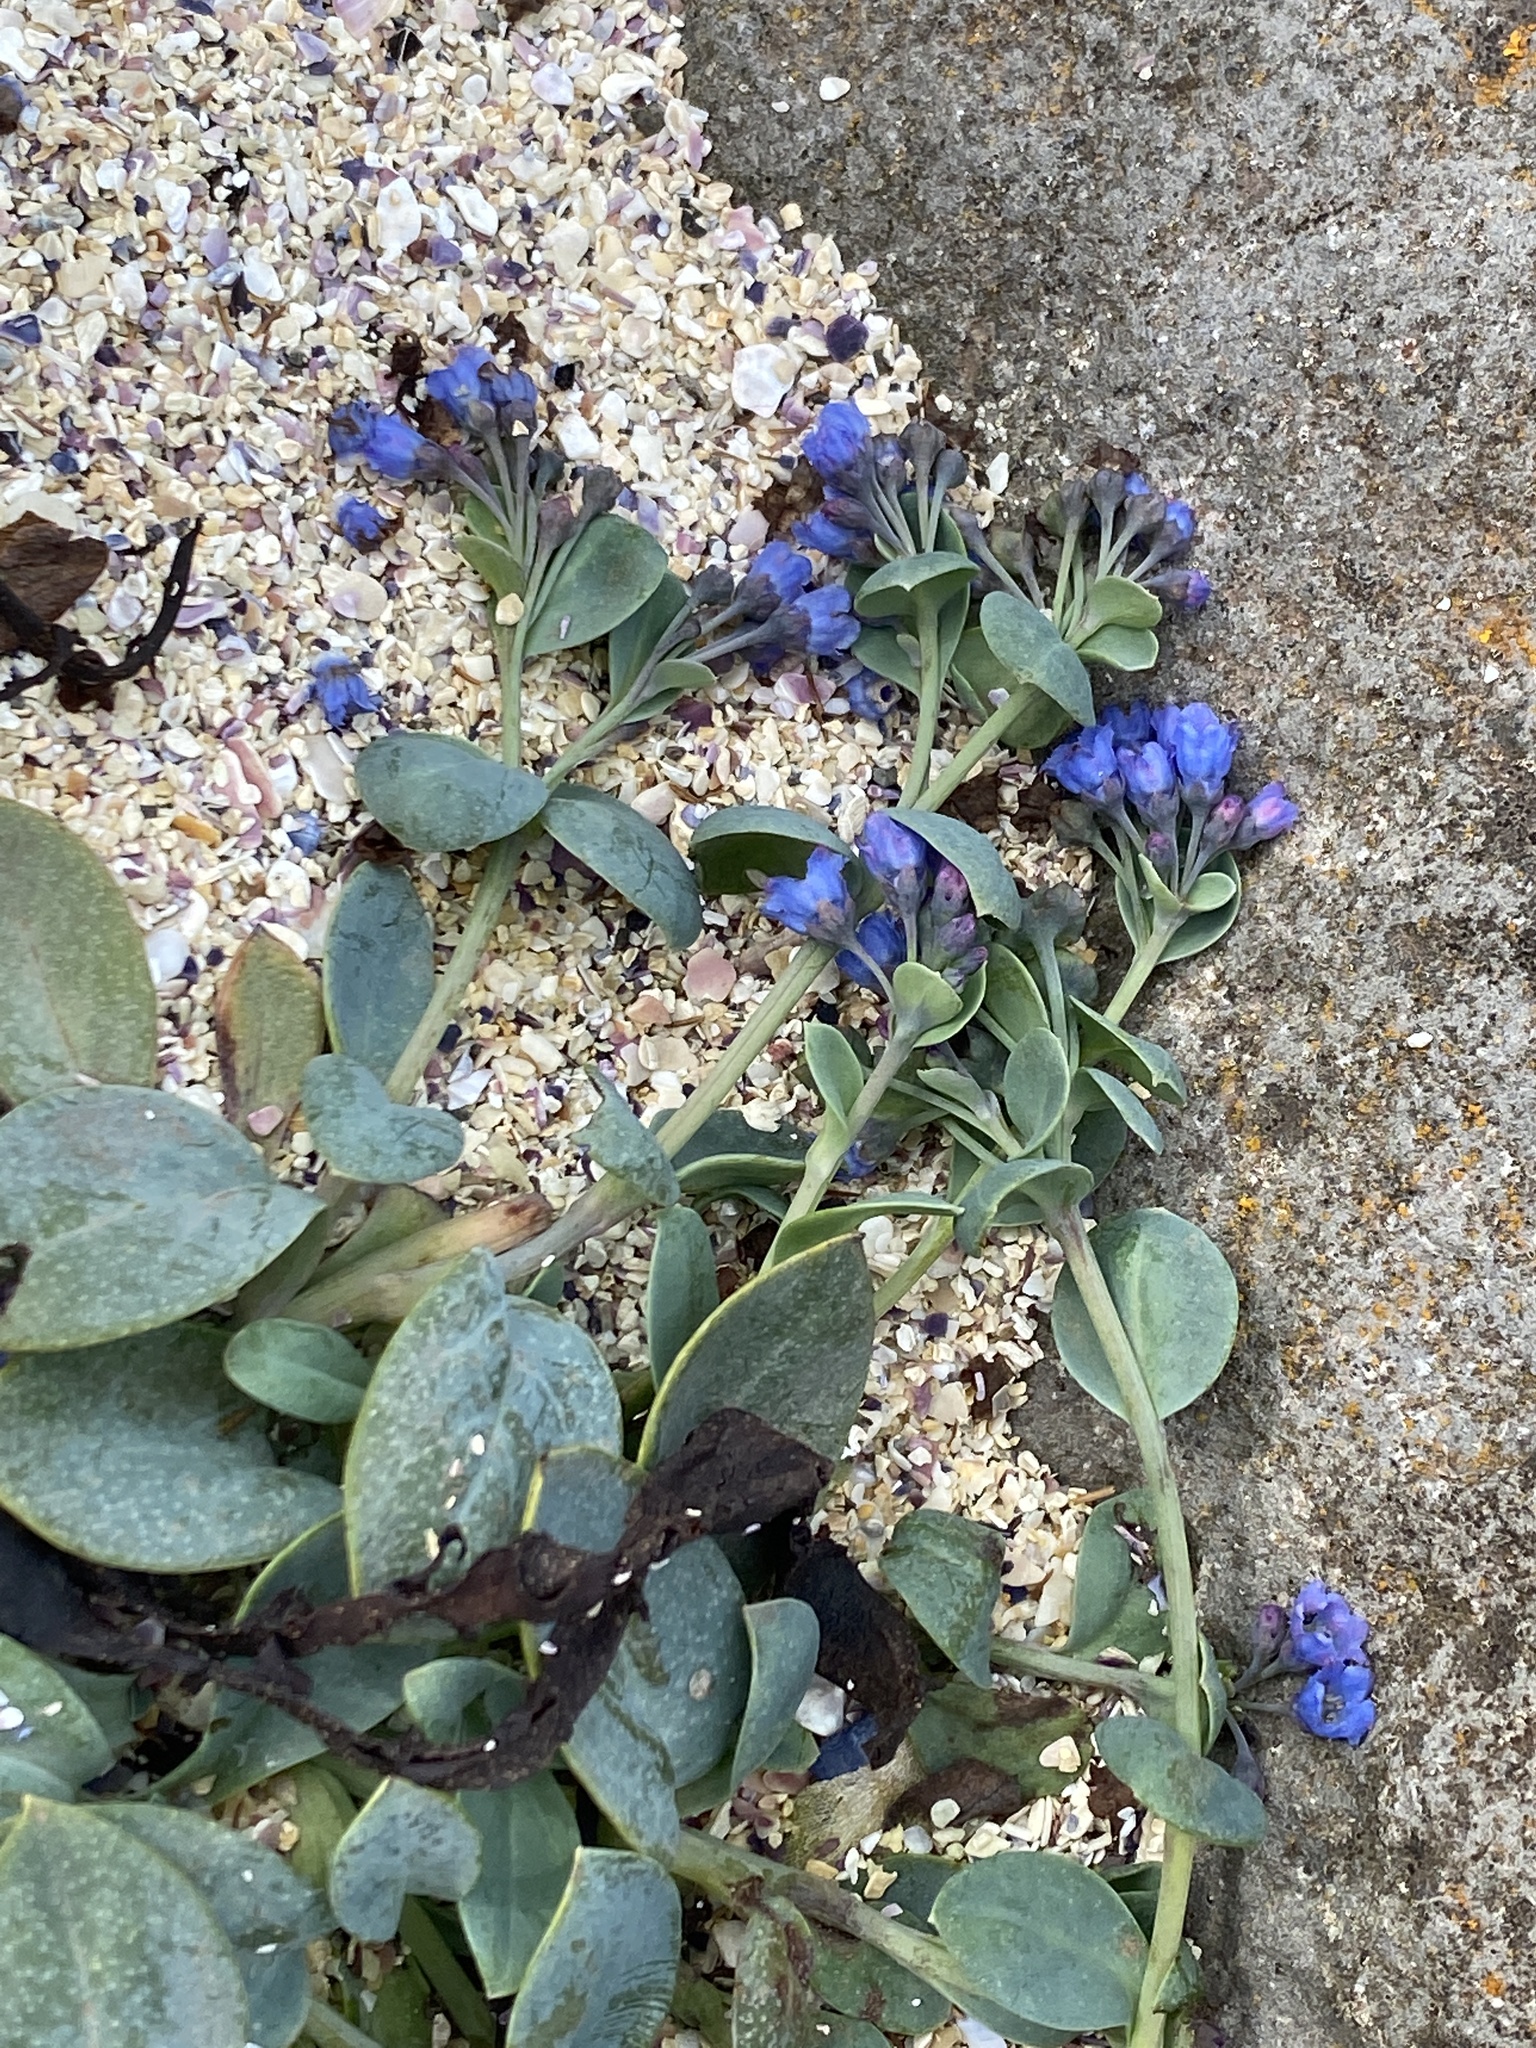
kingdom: Plantae
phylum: Tracheophyta
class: Magnoliopsida
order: Boraginales
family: Boraginaceae
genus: Mertensia
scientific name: Mertensia maritima
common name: Oysterplant
